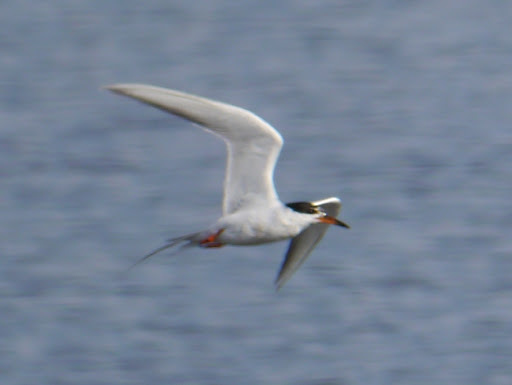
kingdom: Animalia
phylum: Chordata
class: Aves
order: Charadriiformes
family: Laridae
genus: Sterna
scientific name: Sterna forsteri
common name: Forster's tern
